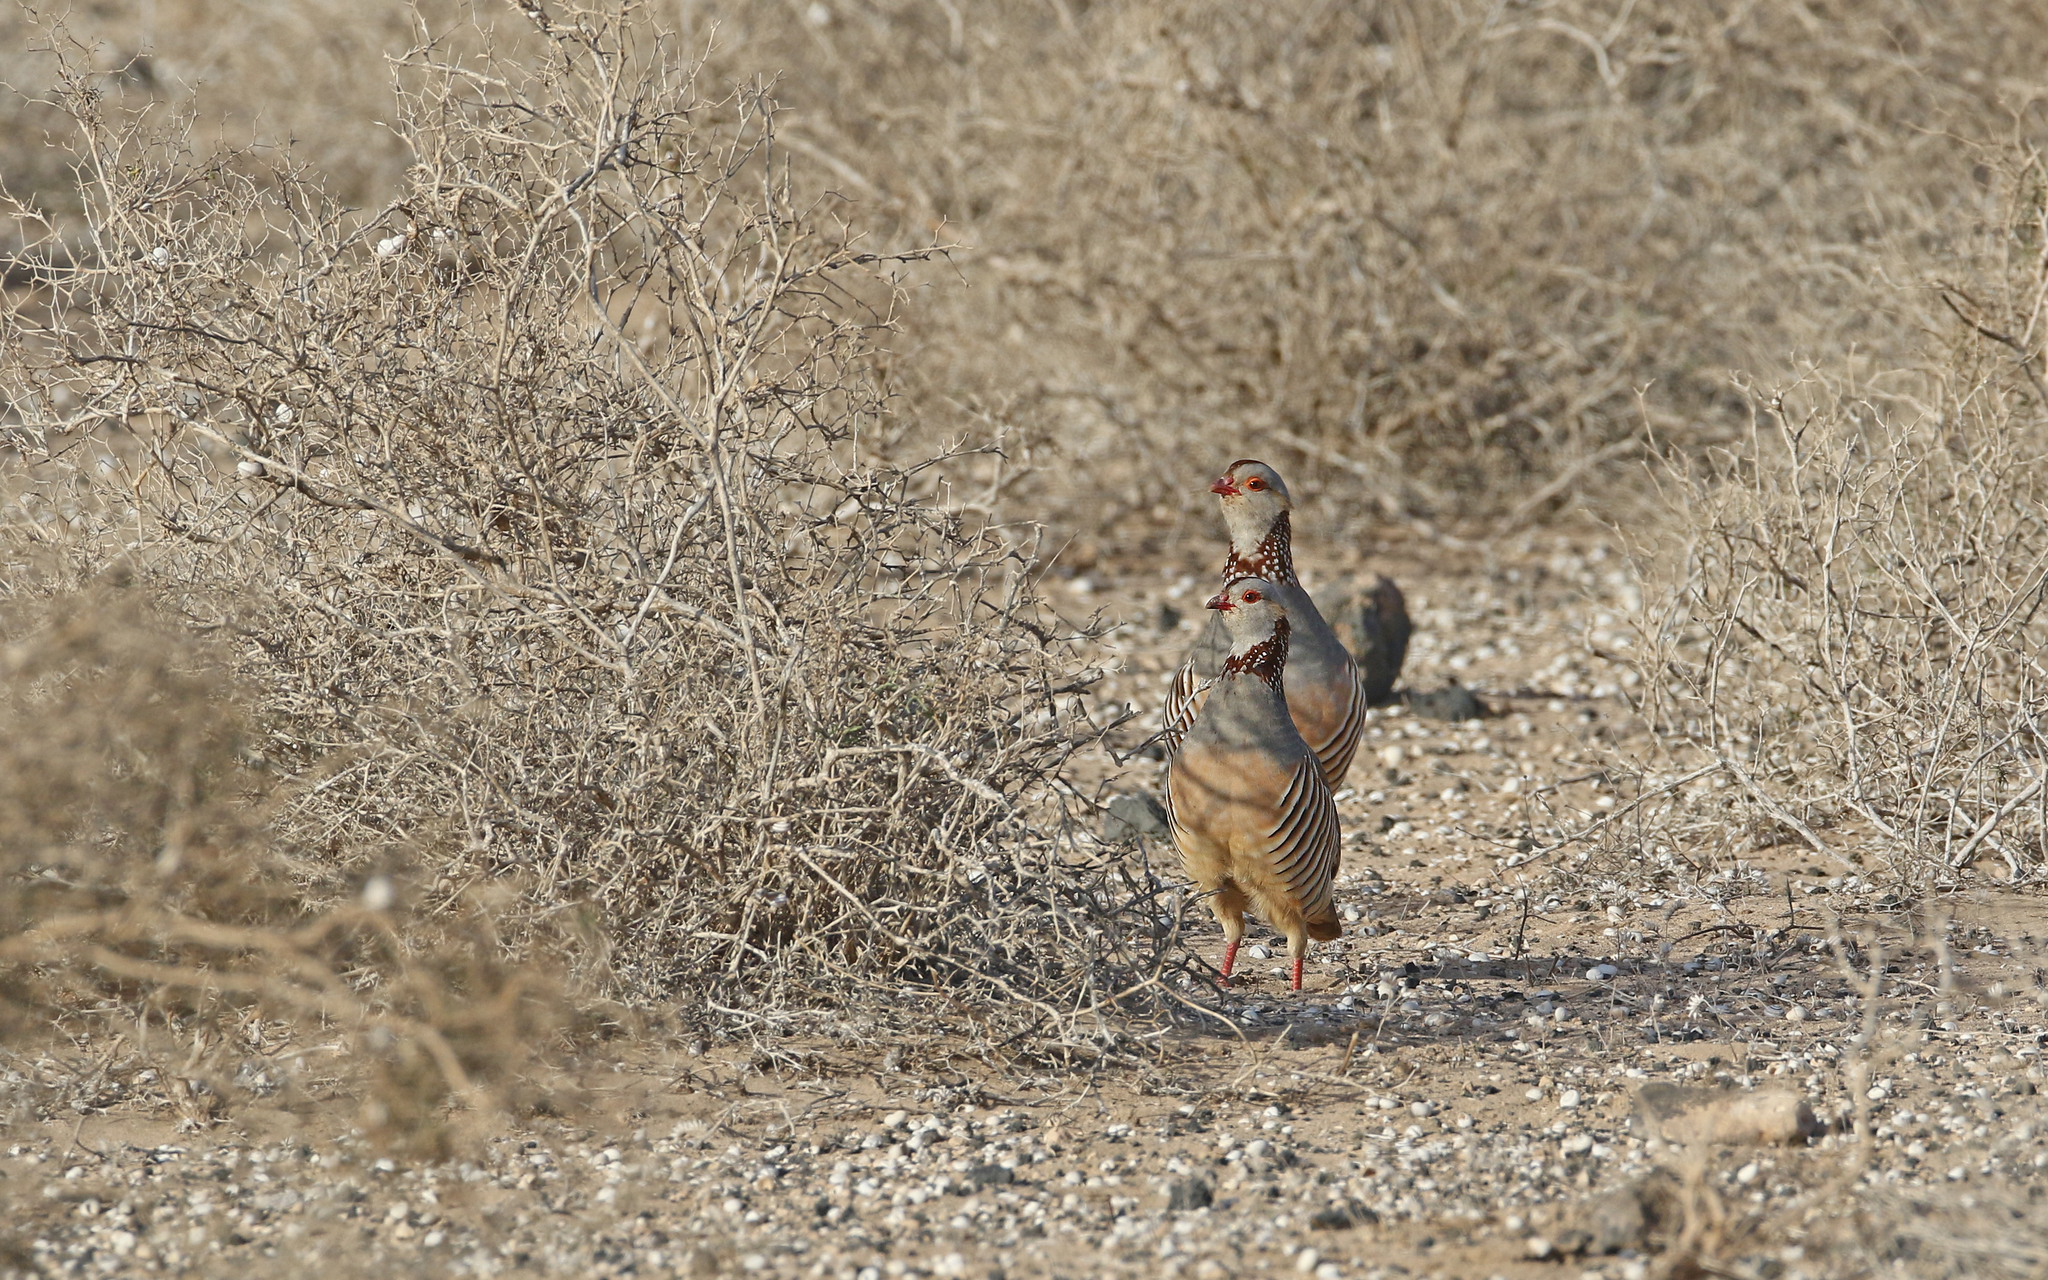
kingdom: Animalia
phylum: Chordata
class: Aves
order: Galliformes
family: Phasianidae
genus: Alectoris
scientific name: Alectoris barbara
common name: Barbary partridge
